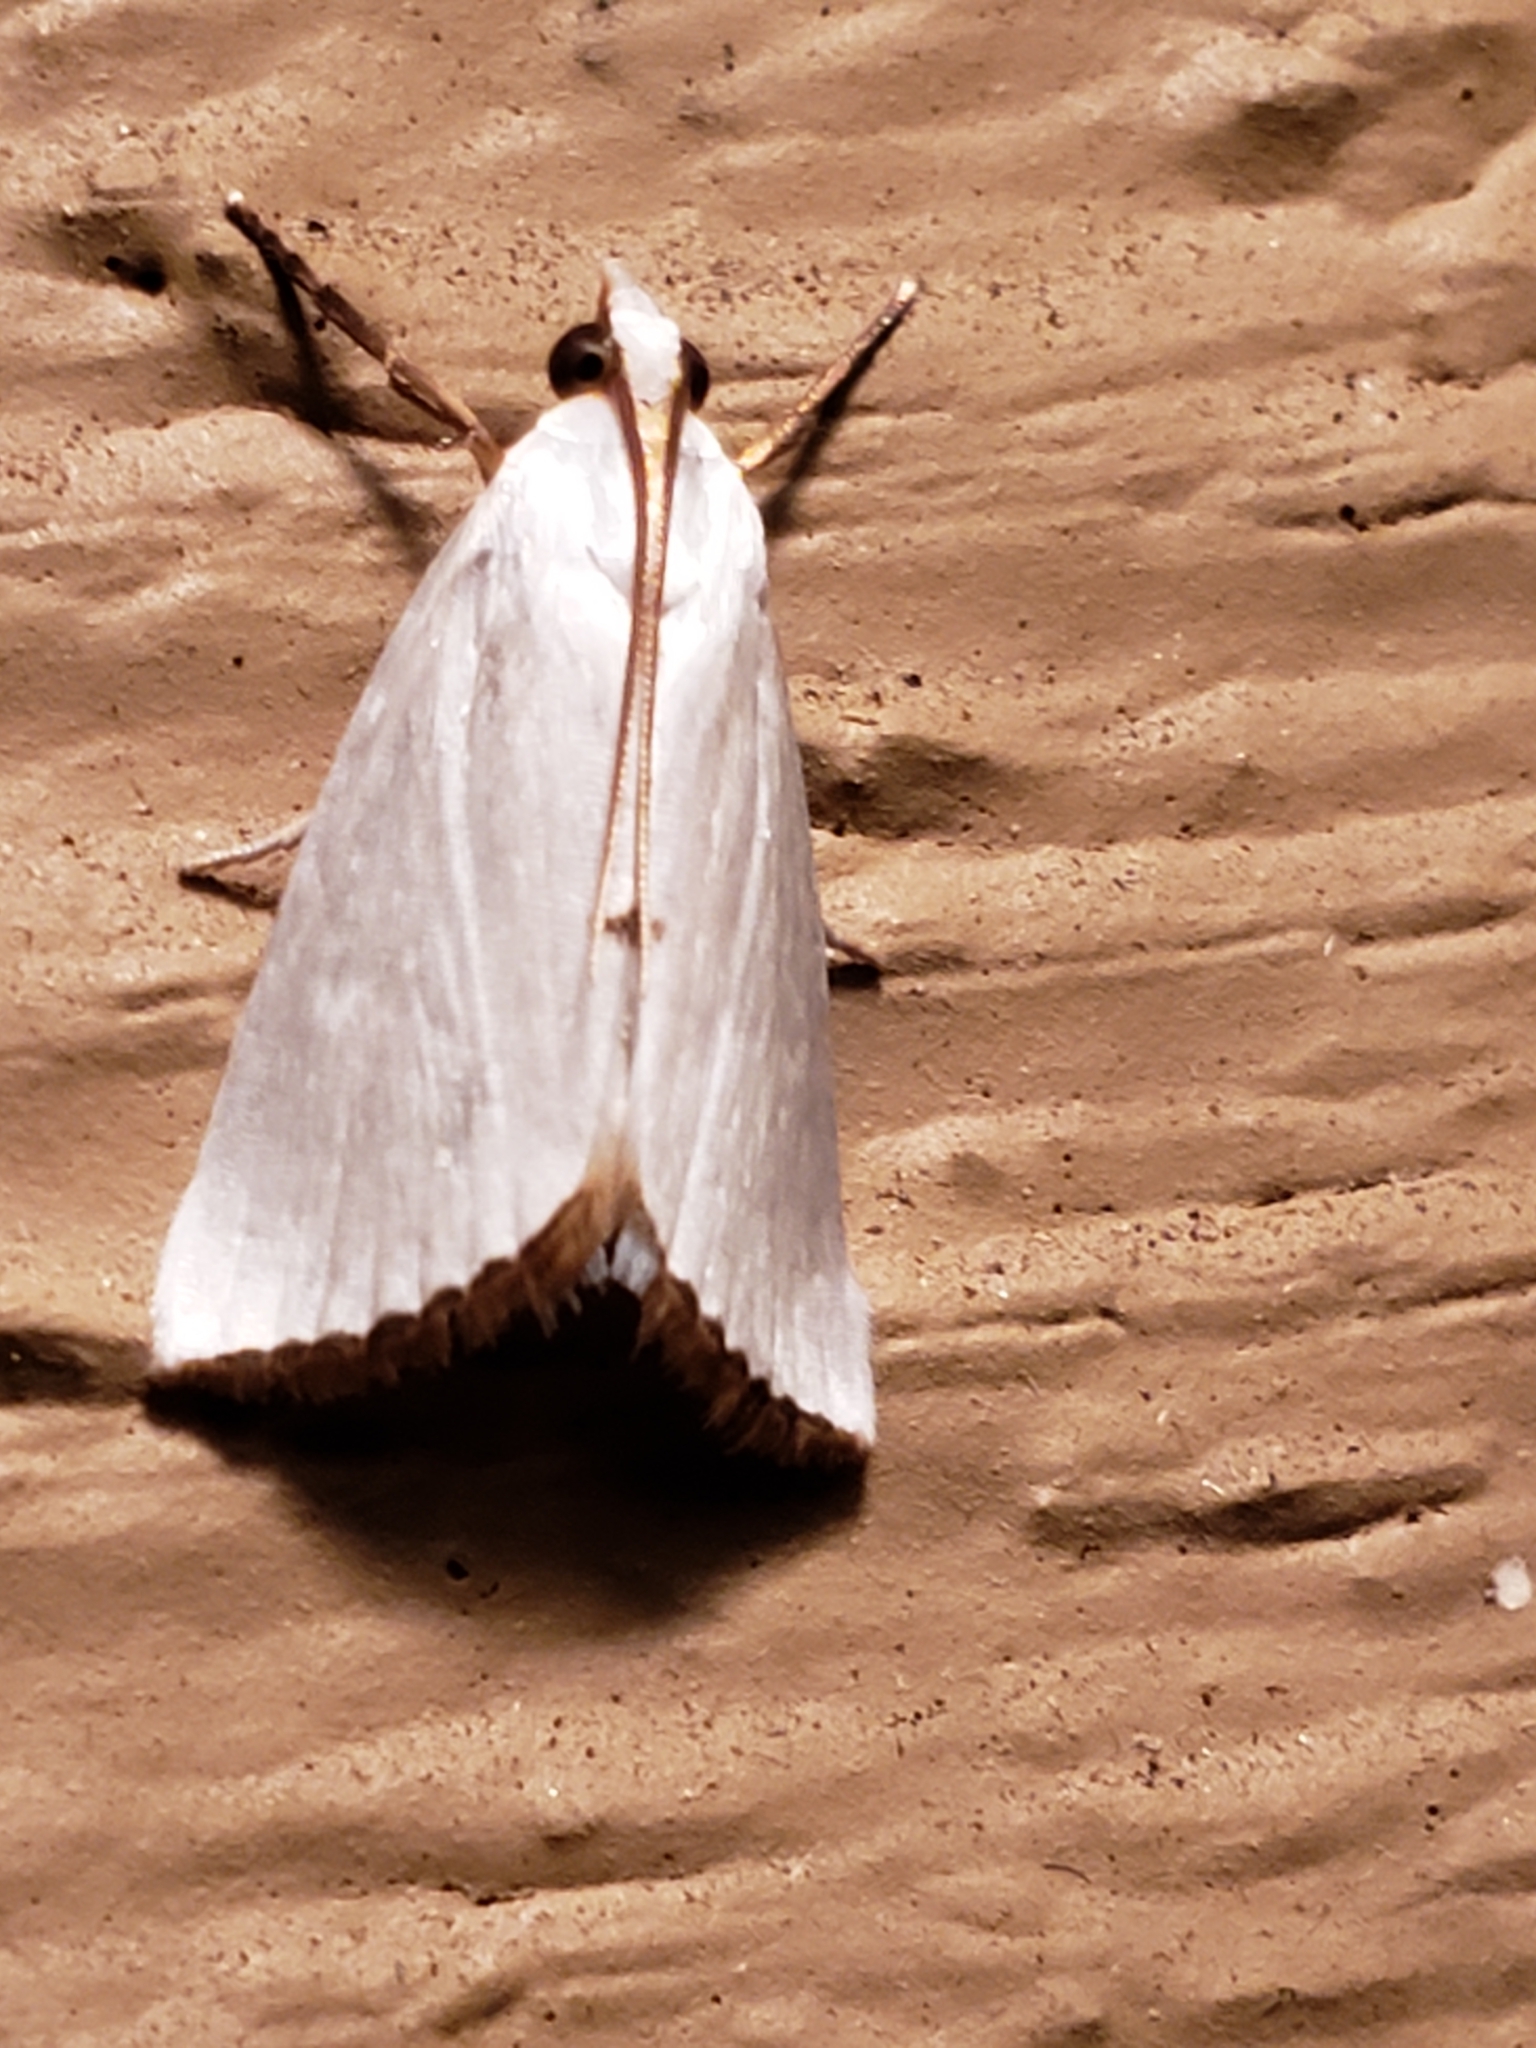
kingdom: Animalia
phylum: Arthropoda
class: Insecta
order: Lepidoptera
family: Crambidae
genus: Argyria
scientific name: Argyria nivalis
